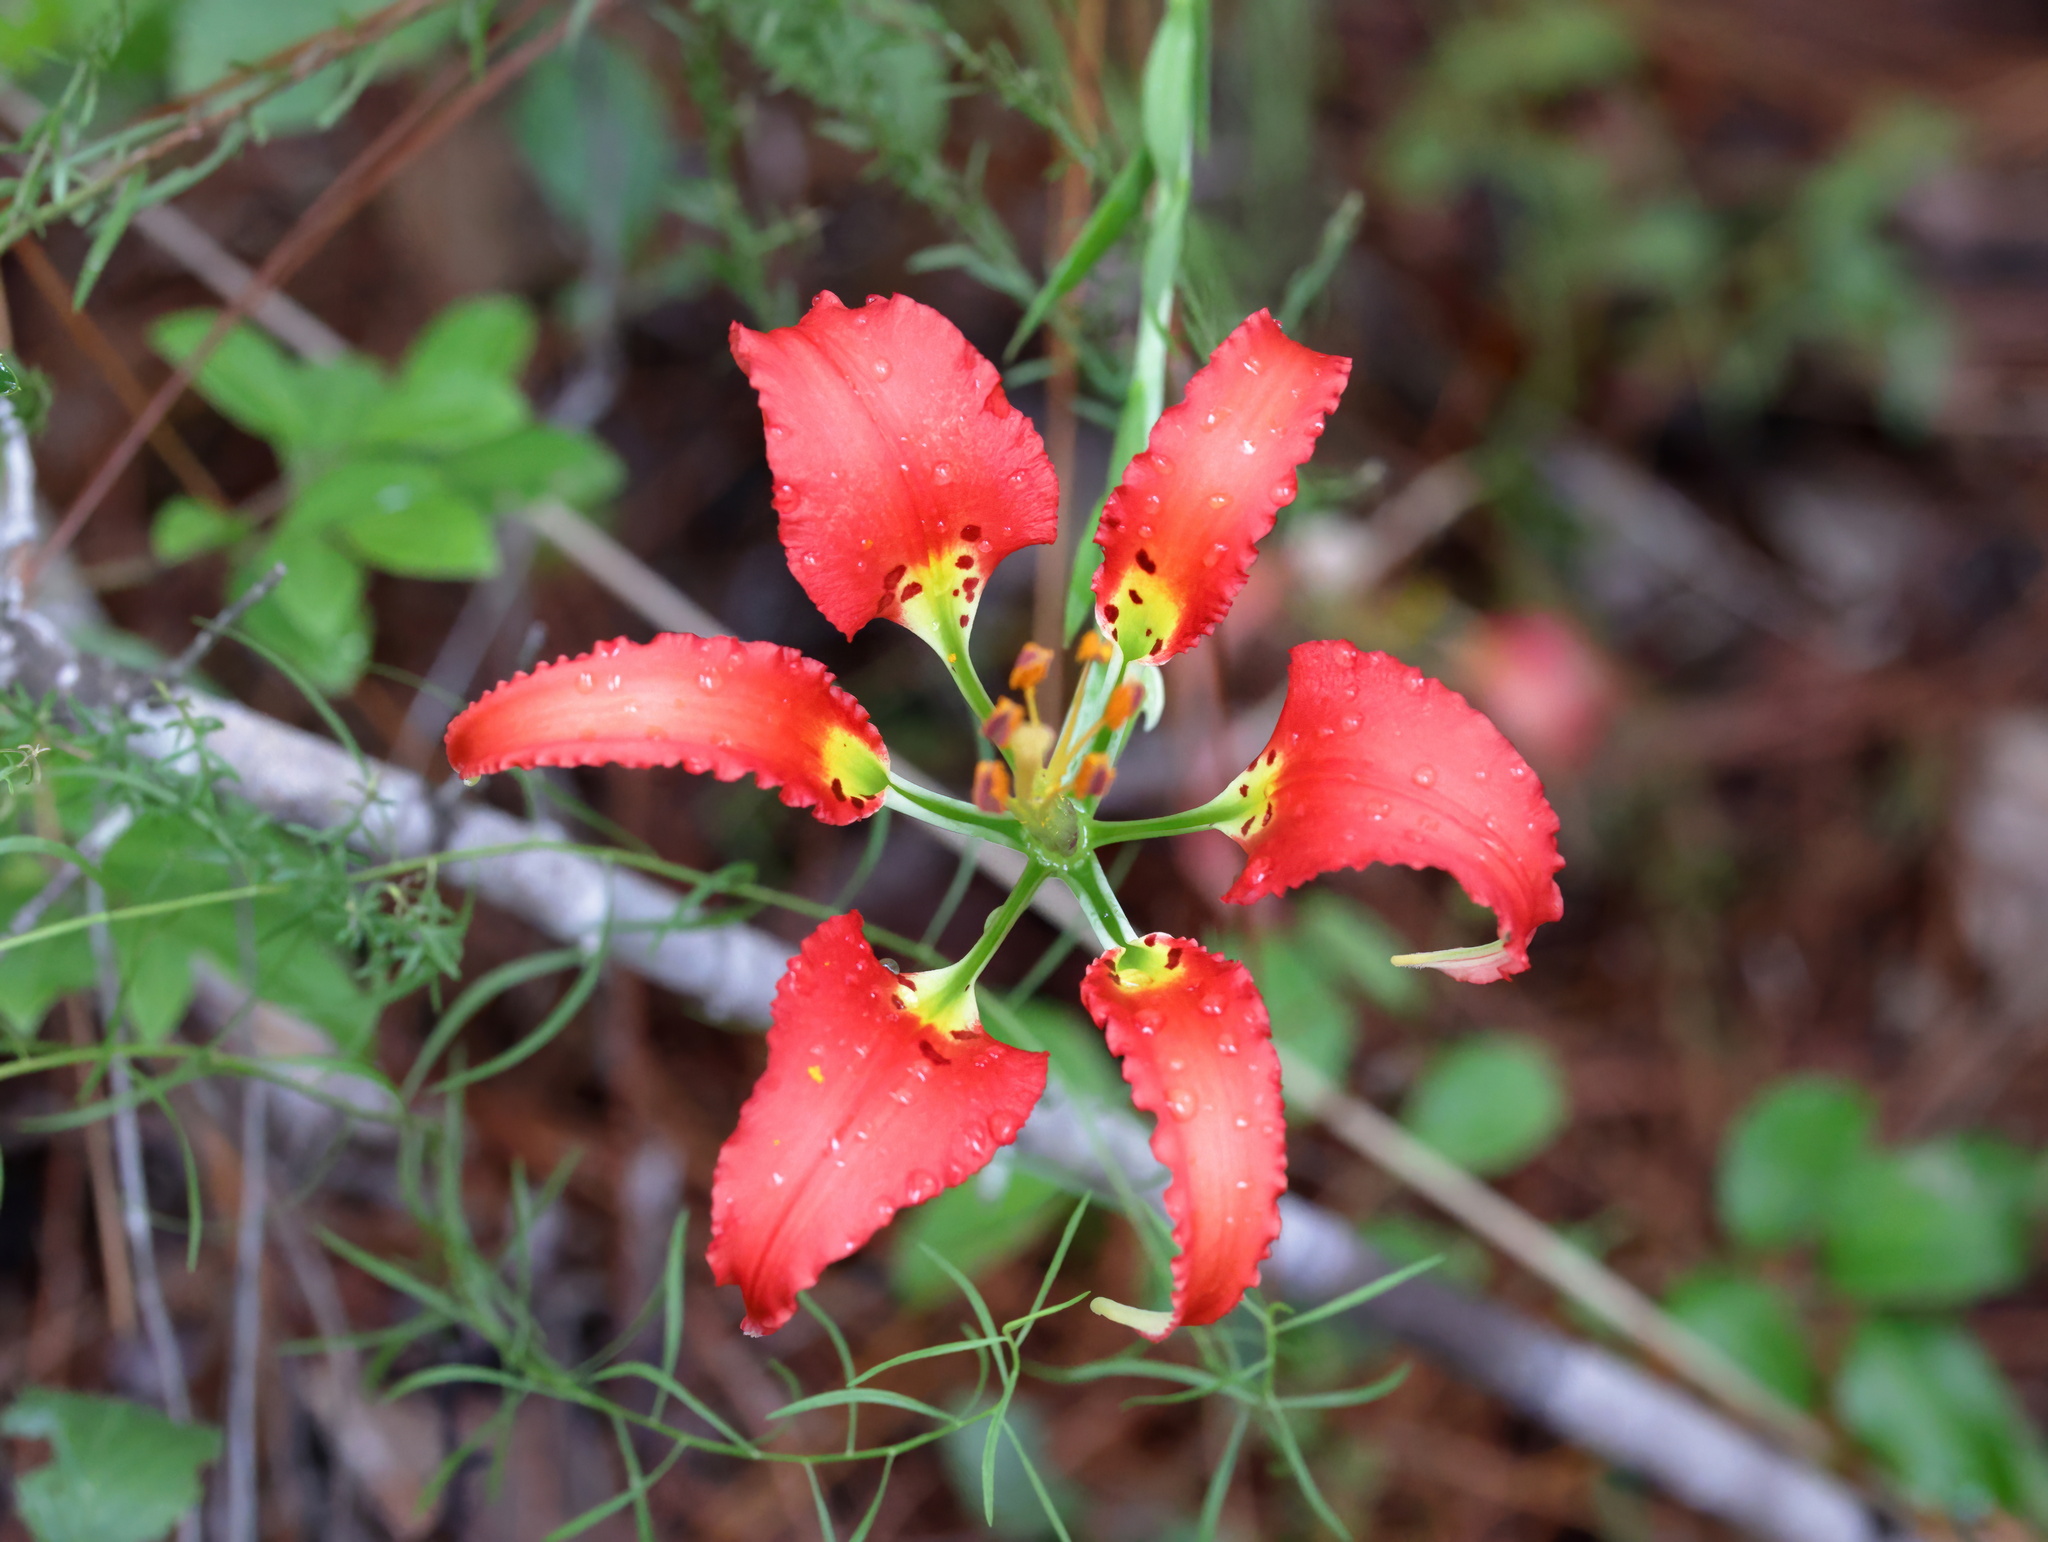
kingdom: Plantae
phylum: Tracheophyta
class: Liliopsida
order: Liliales
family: Liliaceae
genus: Lilium
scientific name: Lilium catesbaei
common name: Catesby's lily
